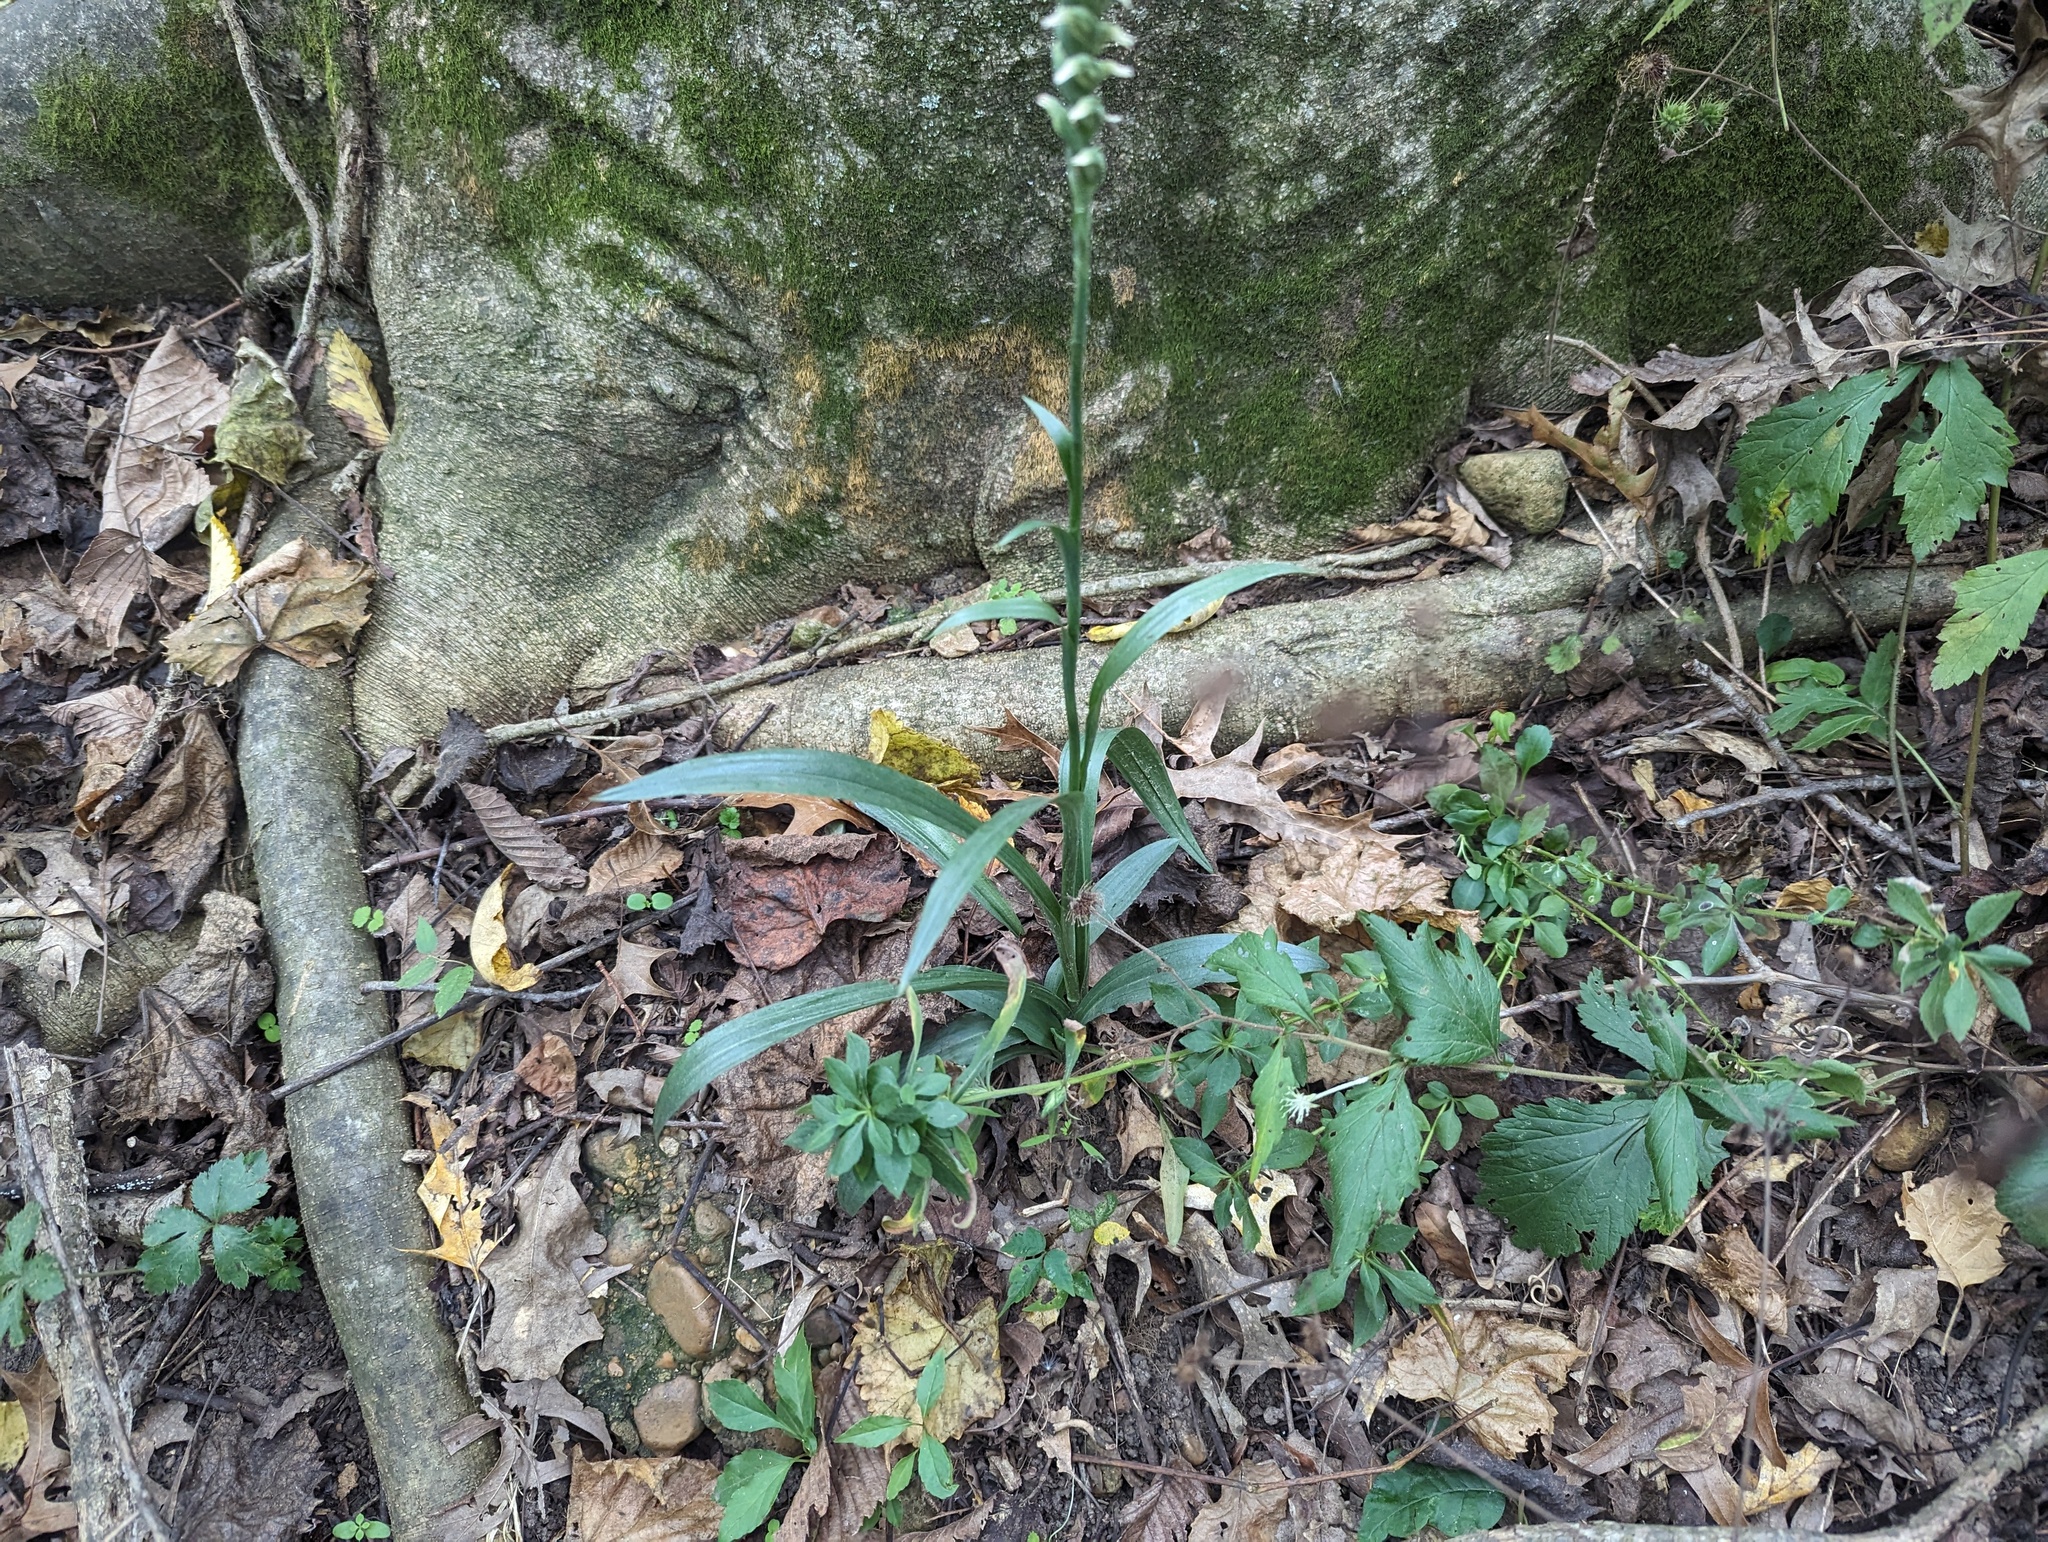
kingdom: Plantae
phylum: Tracheophyta
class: Liliopsida
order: Asparagales
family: Orchidaceae
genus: Spiranthes
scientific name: Spiranthes ovalis
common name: October ladies'-tresses
